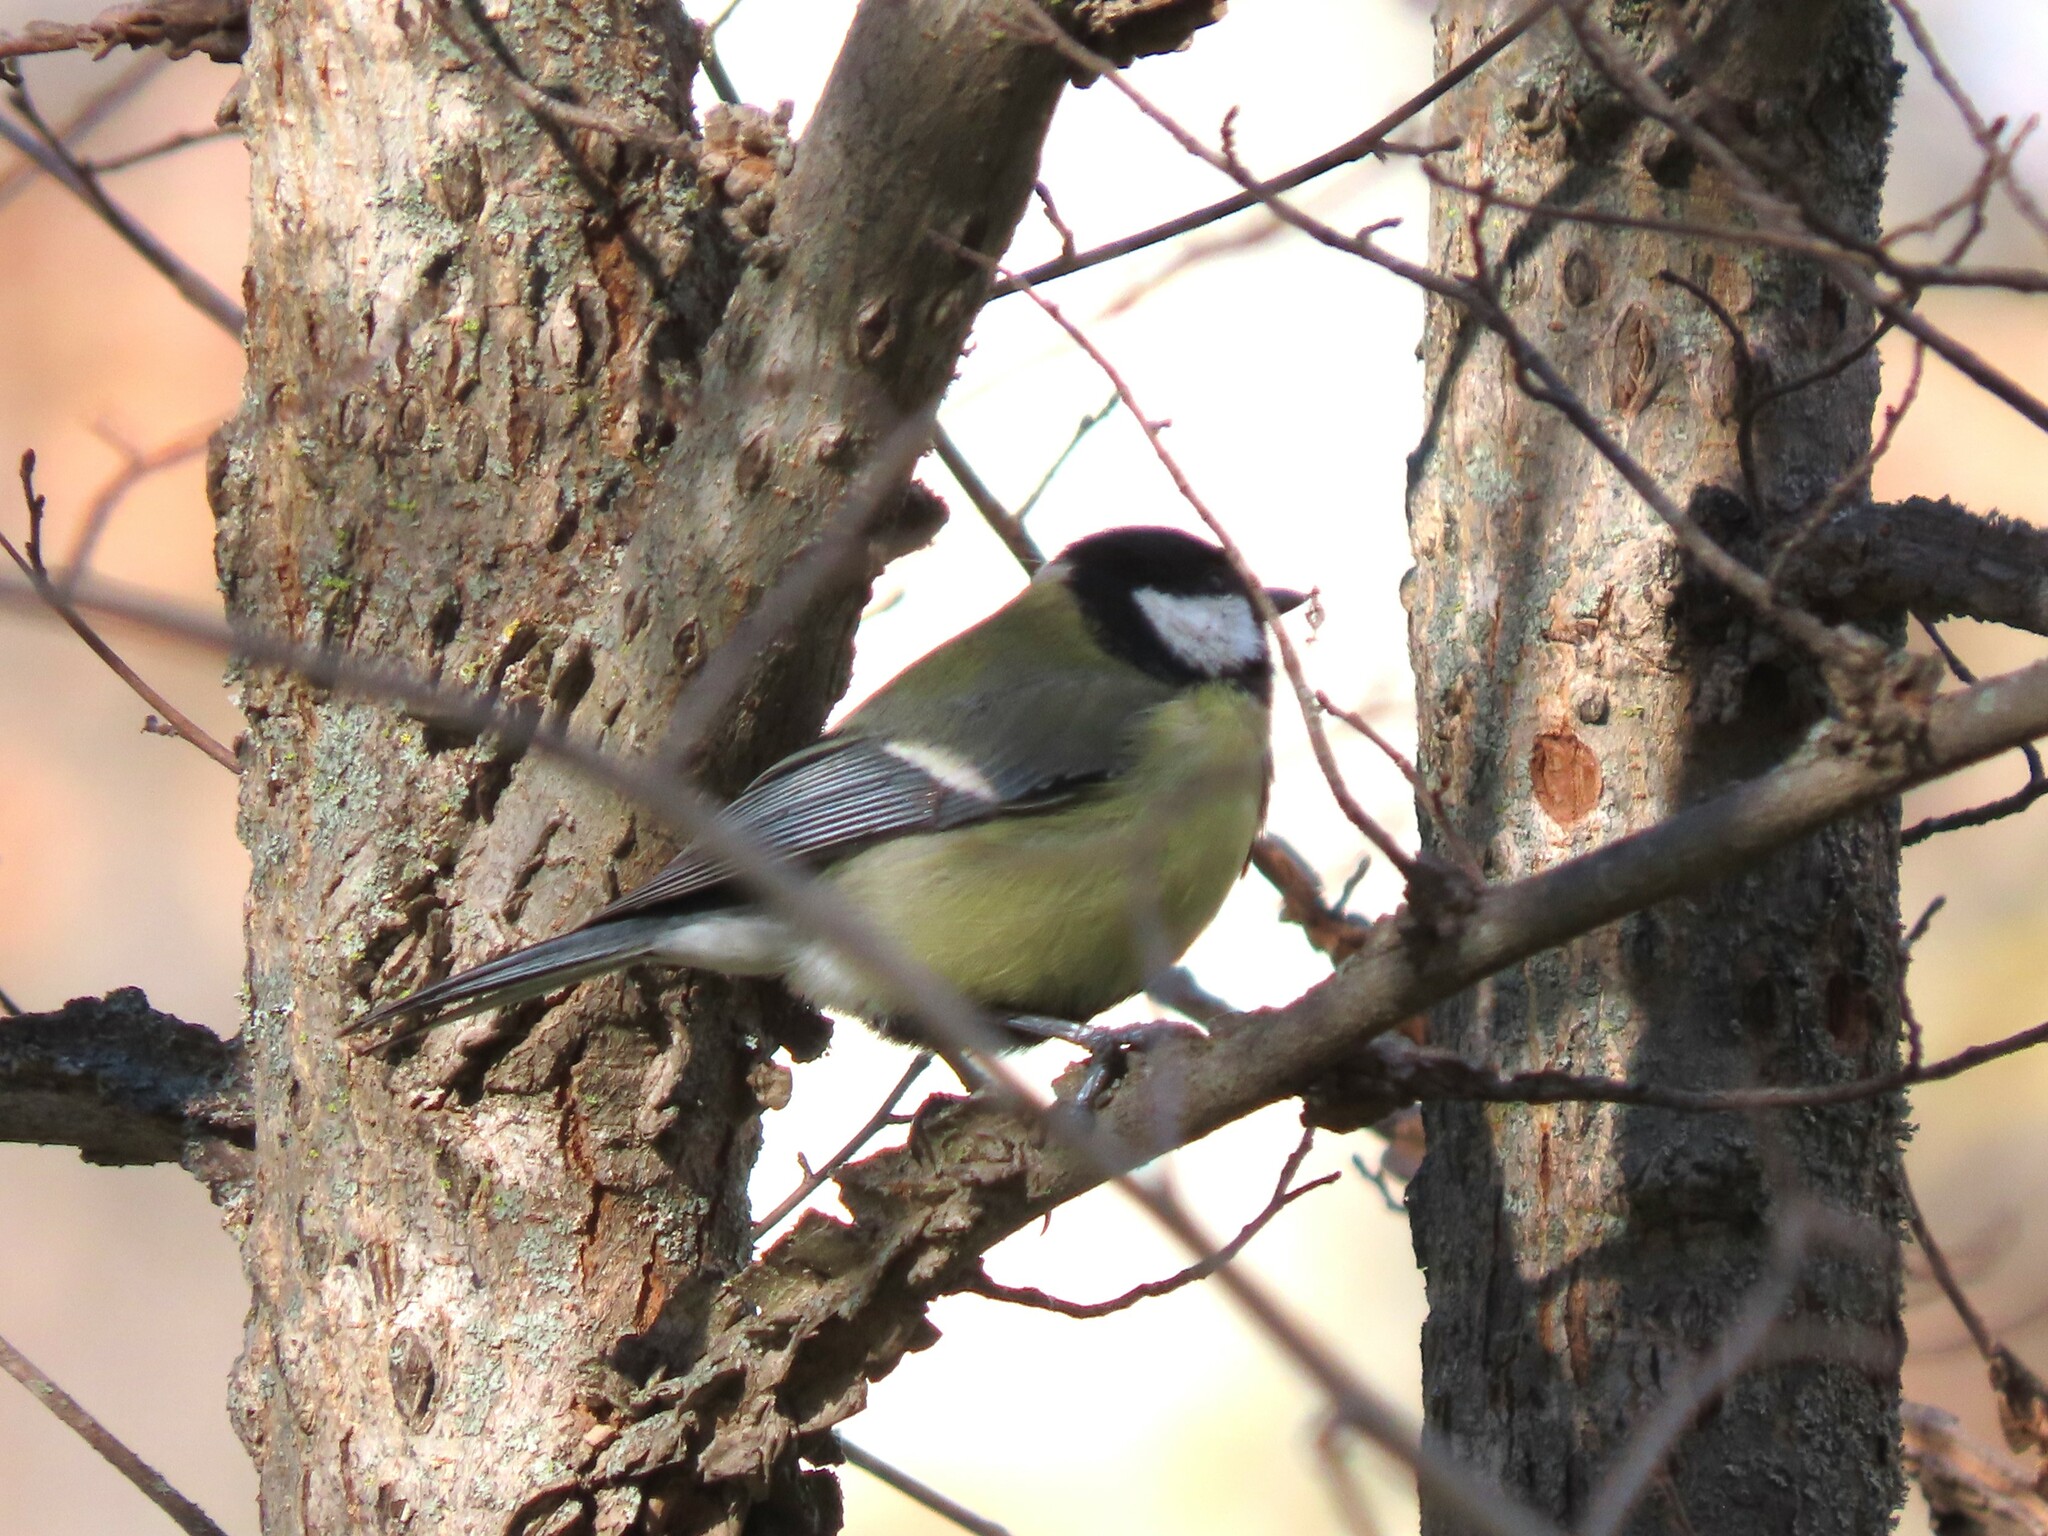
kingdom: Animalia
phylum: Chordata
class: Aves
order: Passeriformes
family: Paridae
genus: Parus
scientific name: Parus major
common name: Great tit
